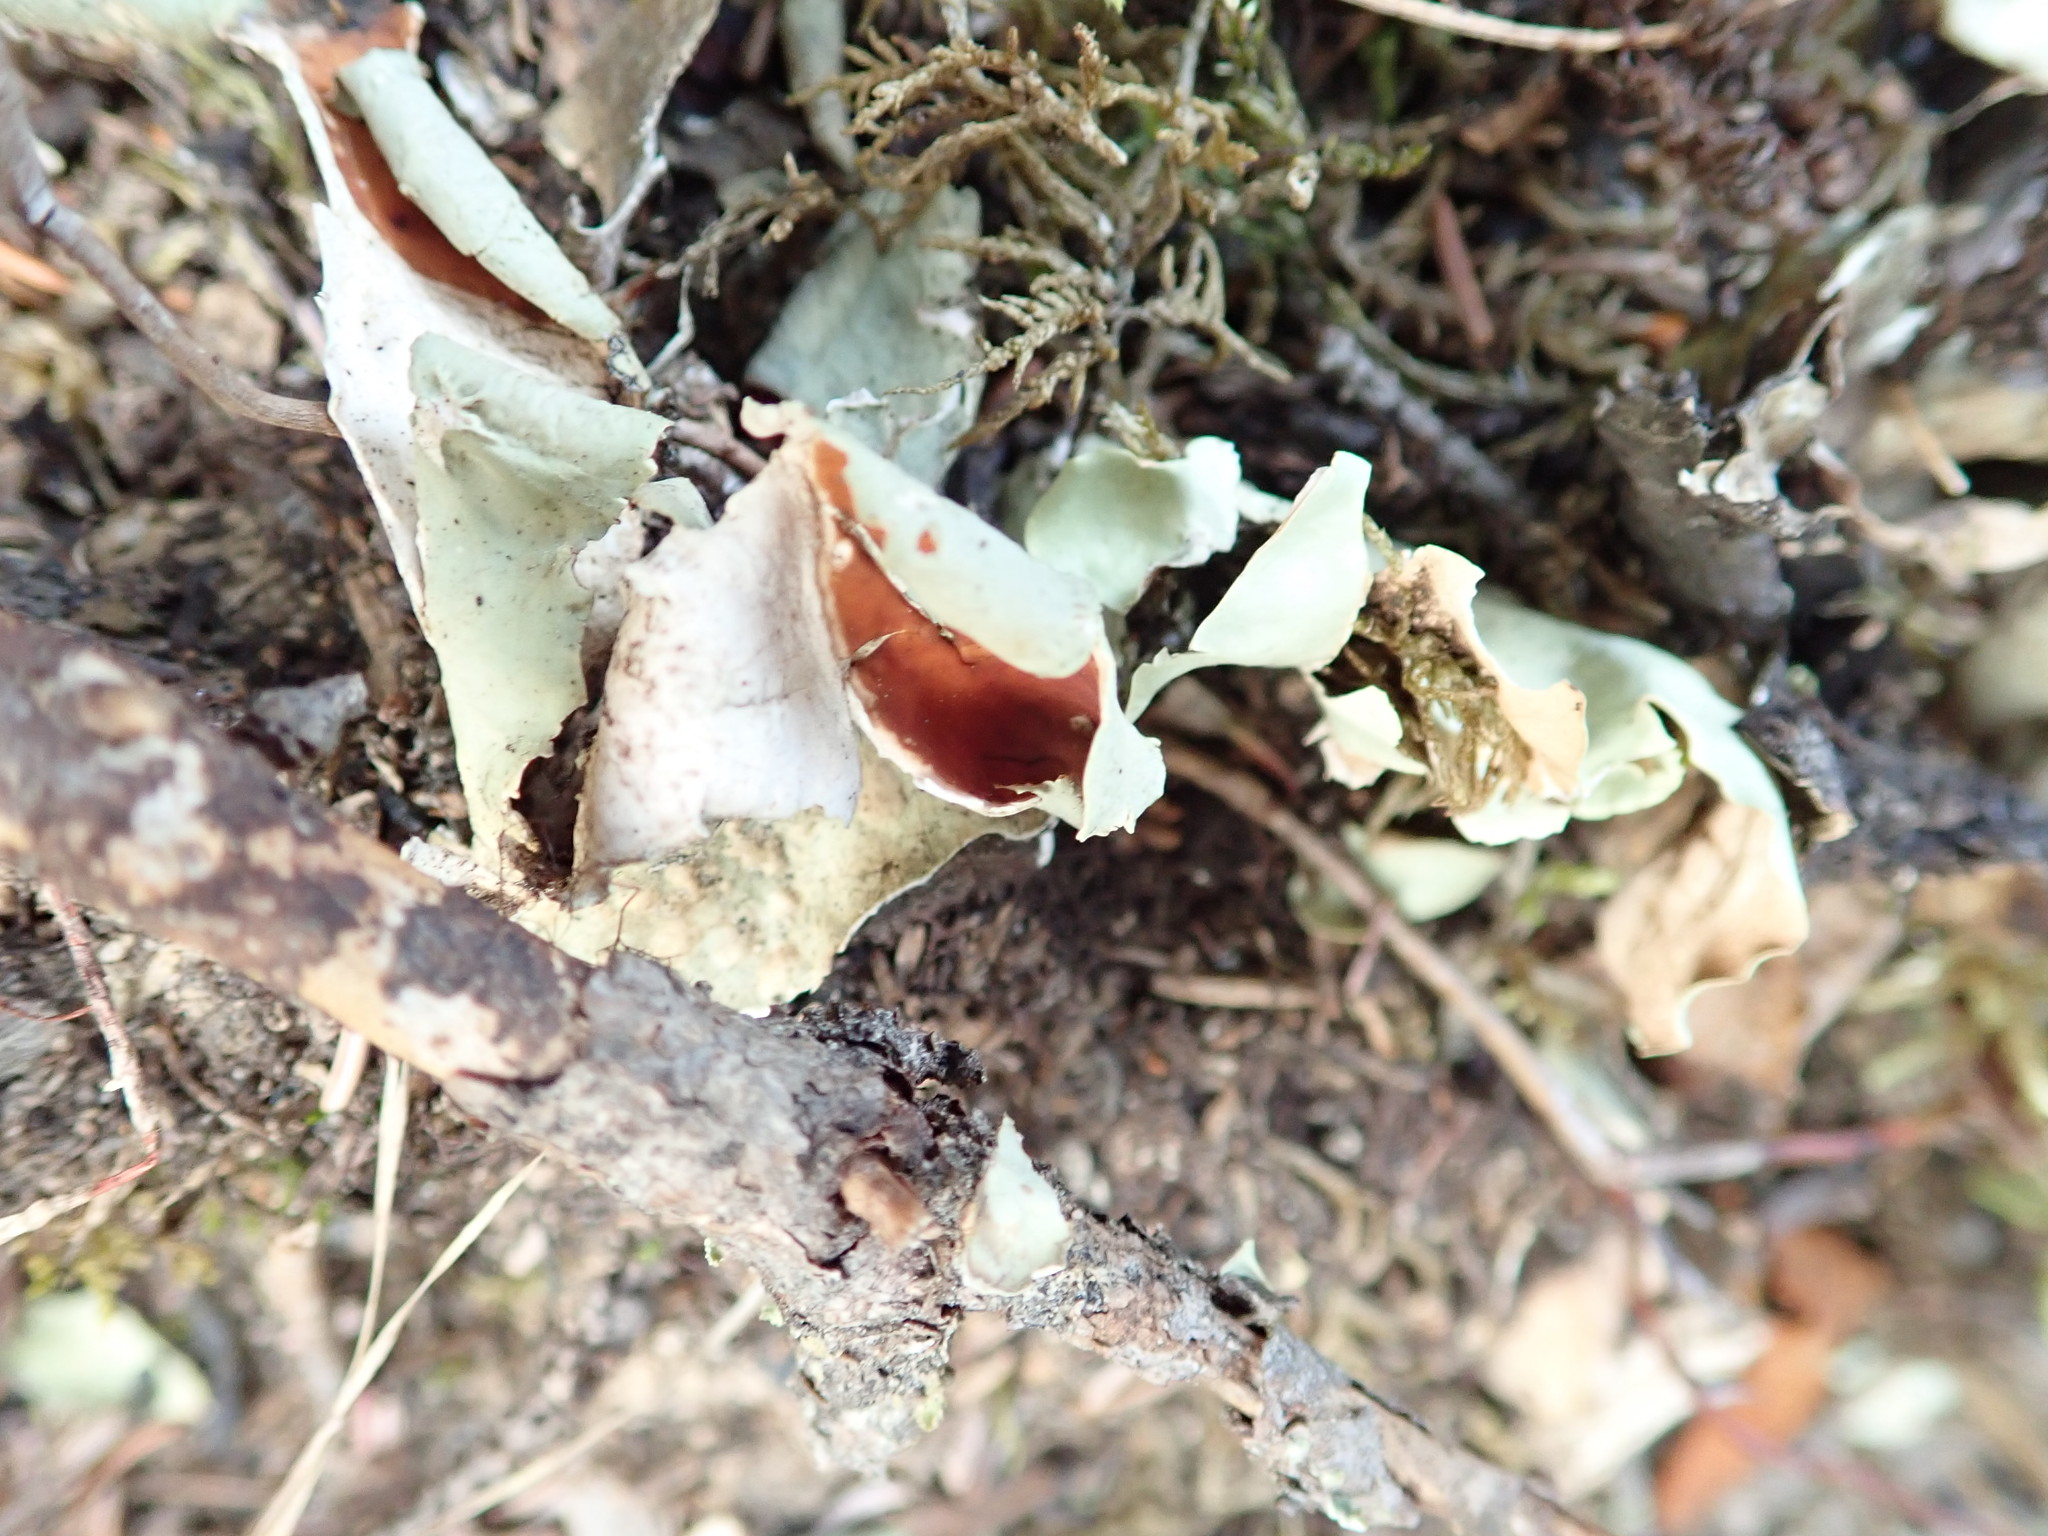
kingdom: Fungi
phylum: Ascomycota
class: Lecanoromycetes
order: Peltigerales
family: Nephromataceae
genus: Nephroma
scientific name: Nephroma arcticum
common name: Arctic kidney-lichen
